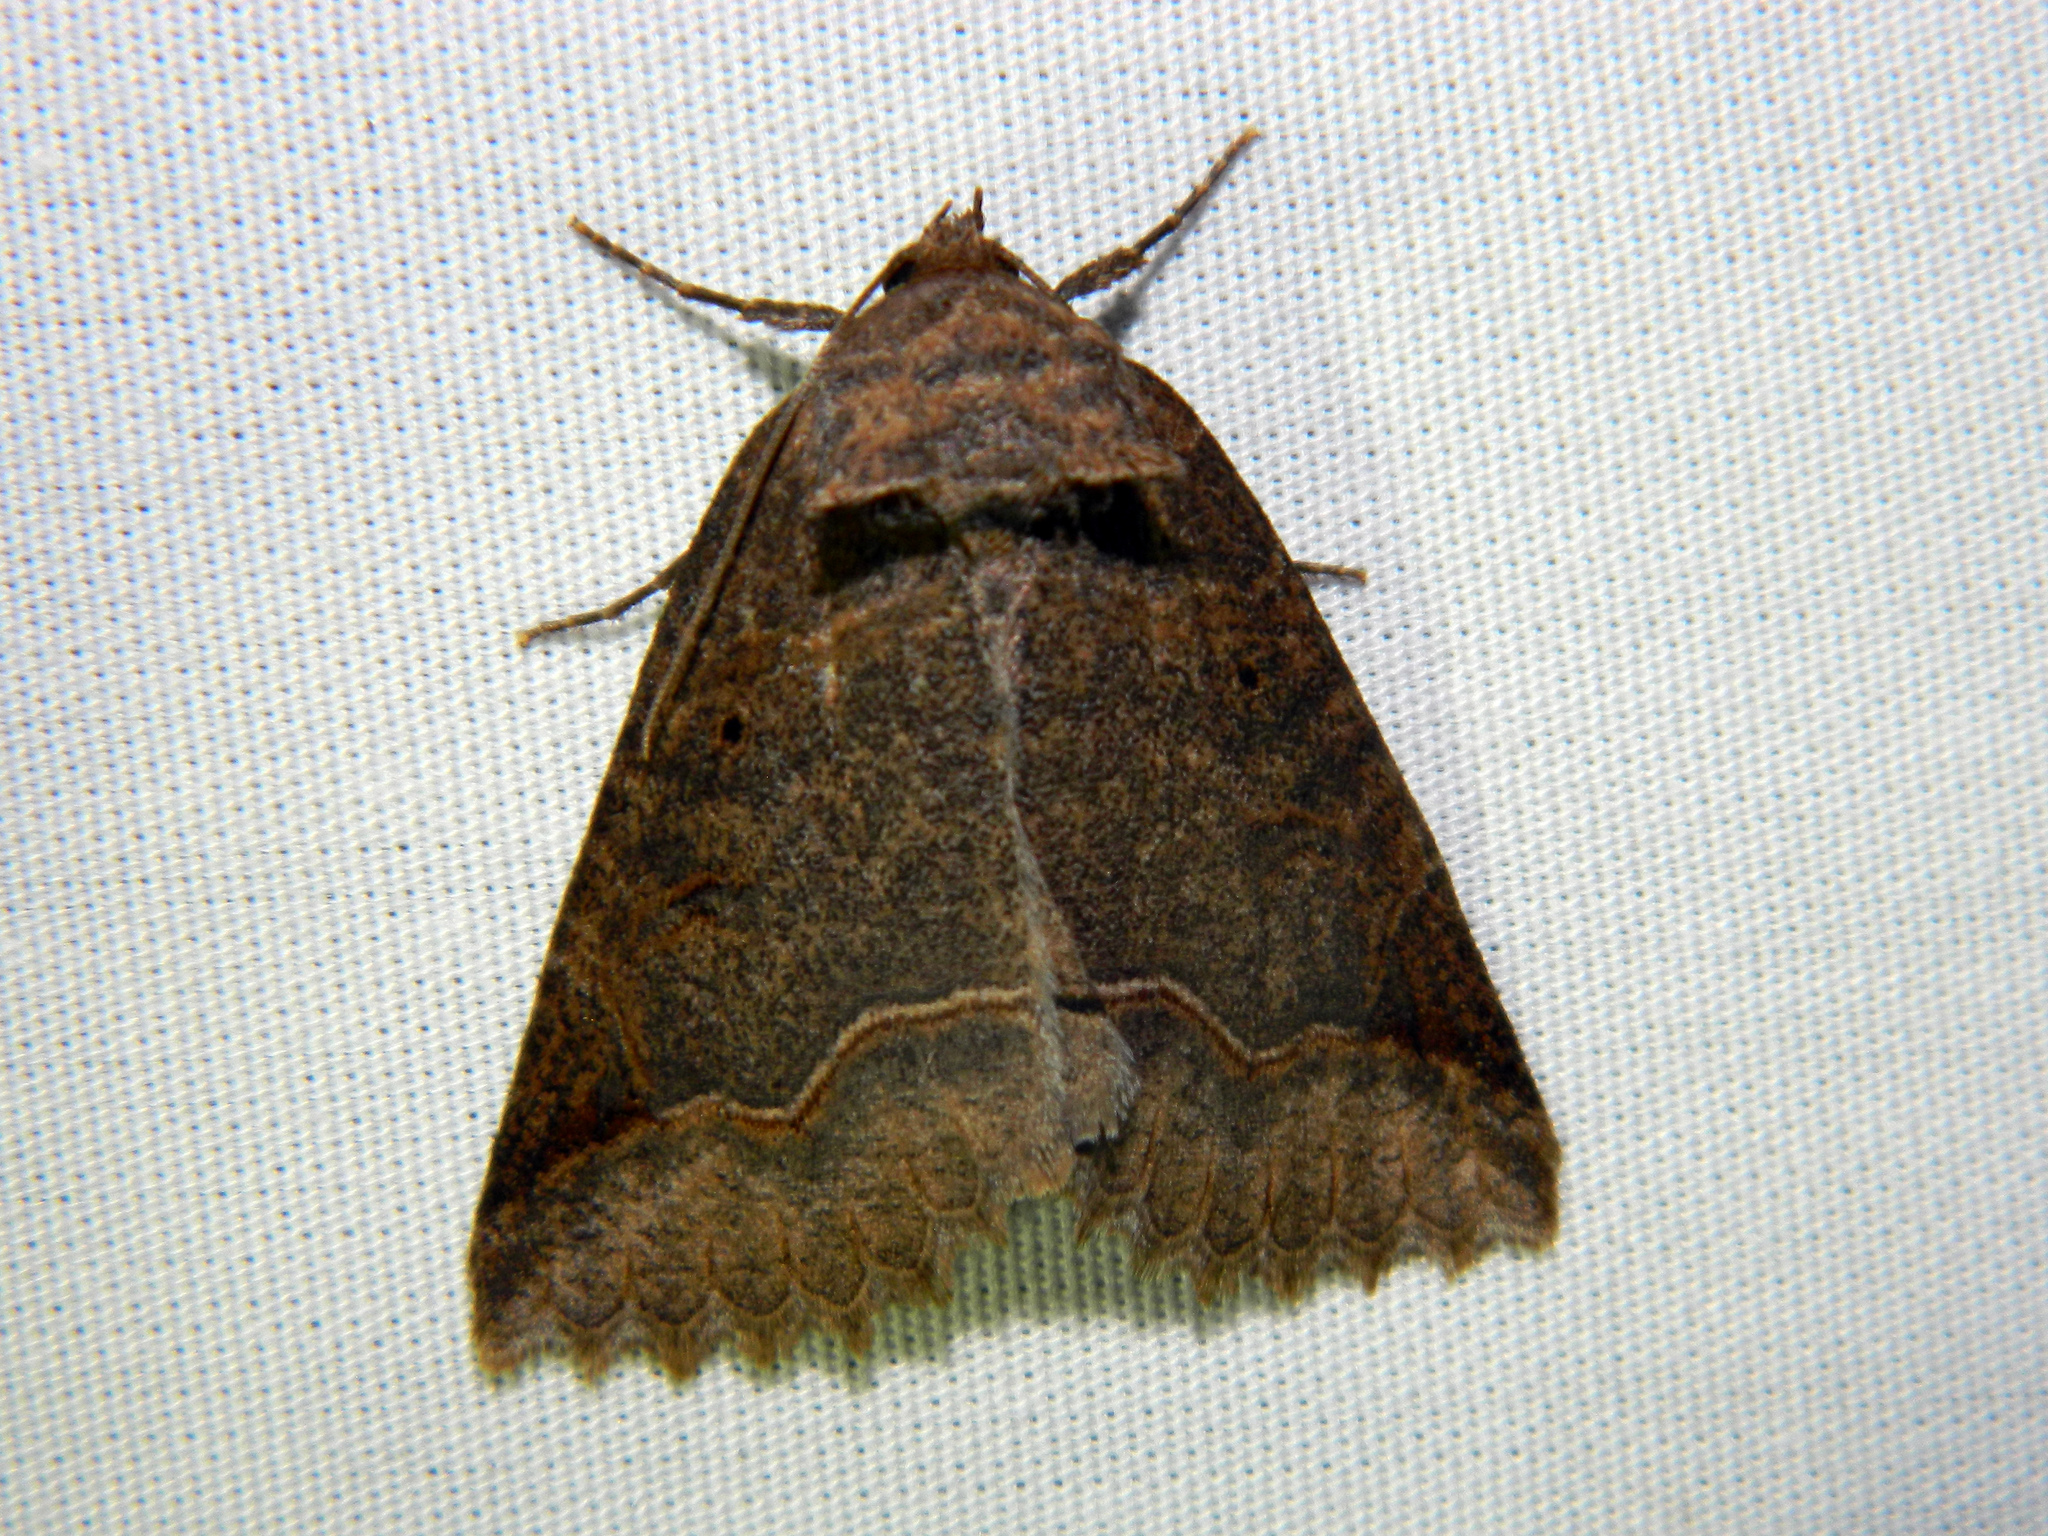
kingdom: Animalia
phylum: Arthropoda
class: Insecta
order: Lepidoptera
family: Erebidae
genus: Zale
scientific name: Zale unilineata
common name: One-lined zale moth
